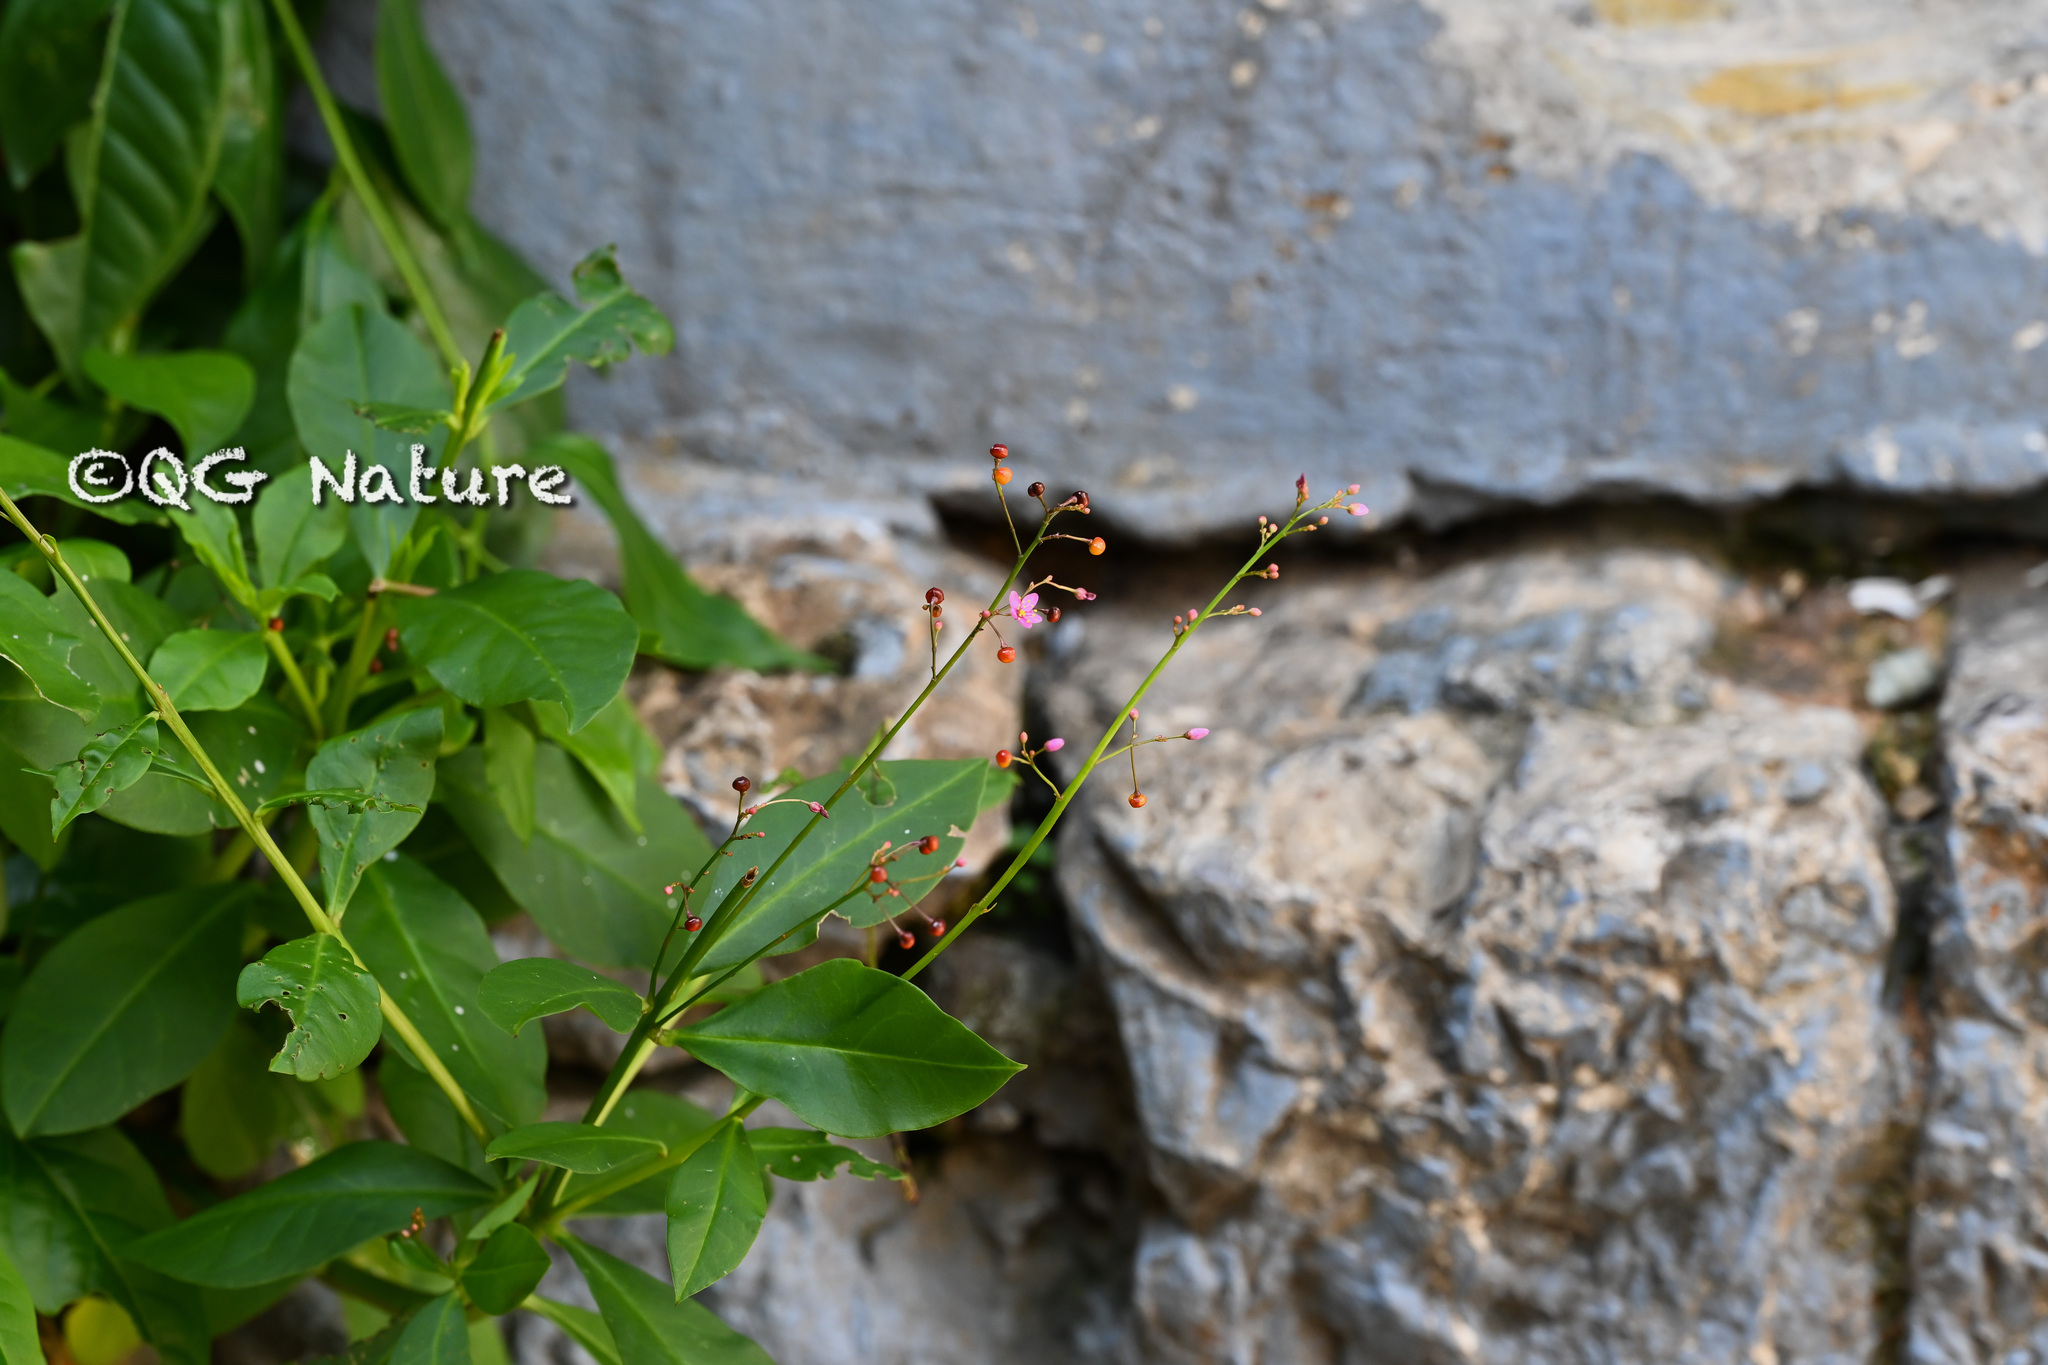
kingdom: Plantae
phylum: Tracheophyta
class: Magnoliopsida
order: Caryophyllales
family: Talinaceae
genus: Talinum
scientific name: Talinum paniculatum
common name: Jewels of opar
